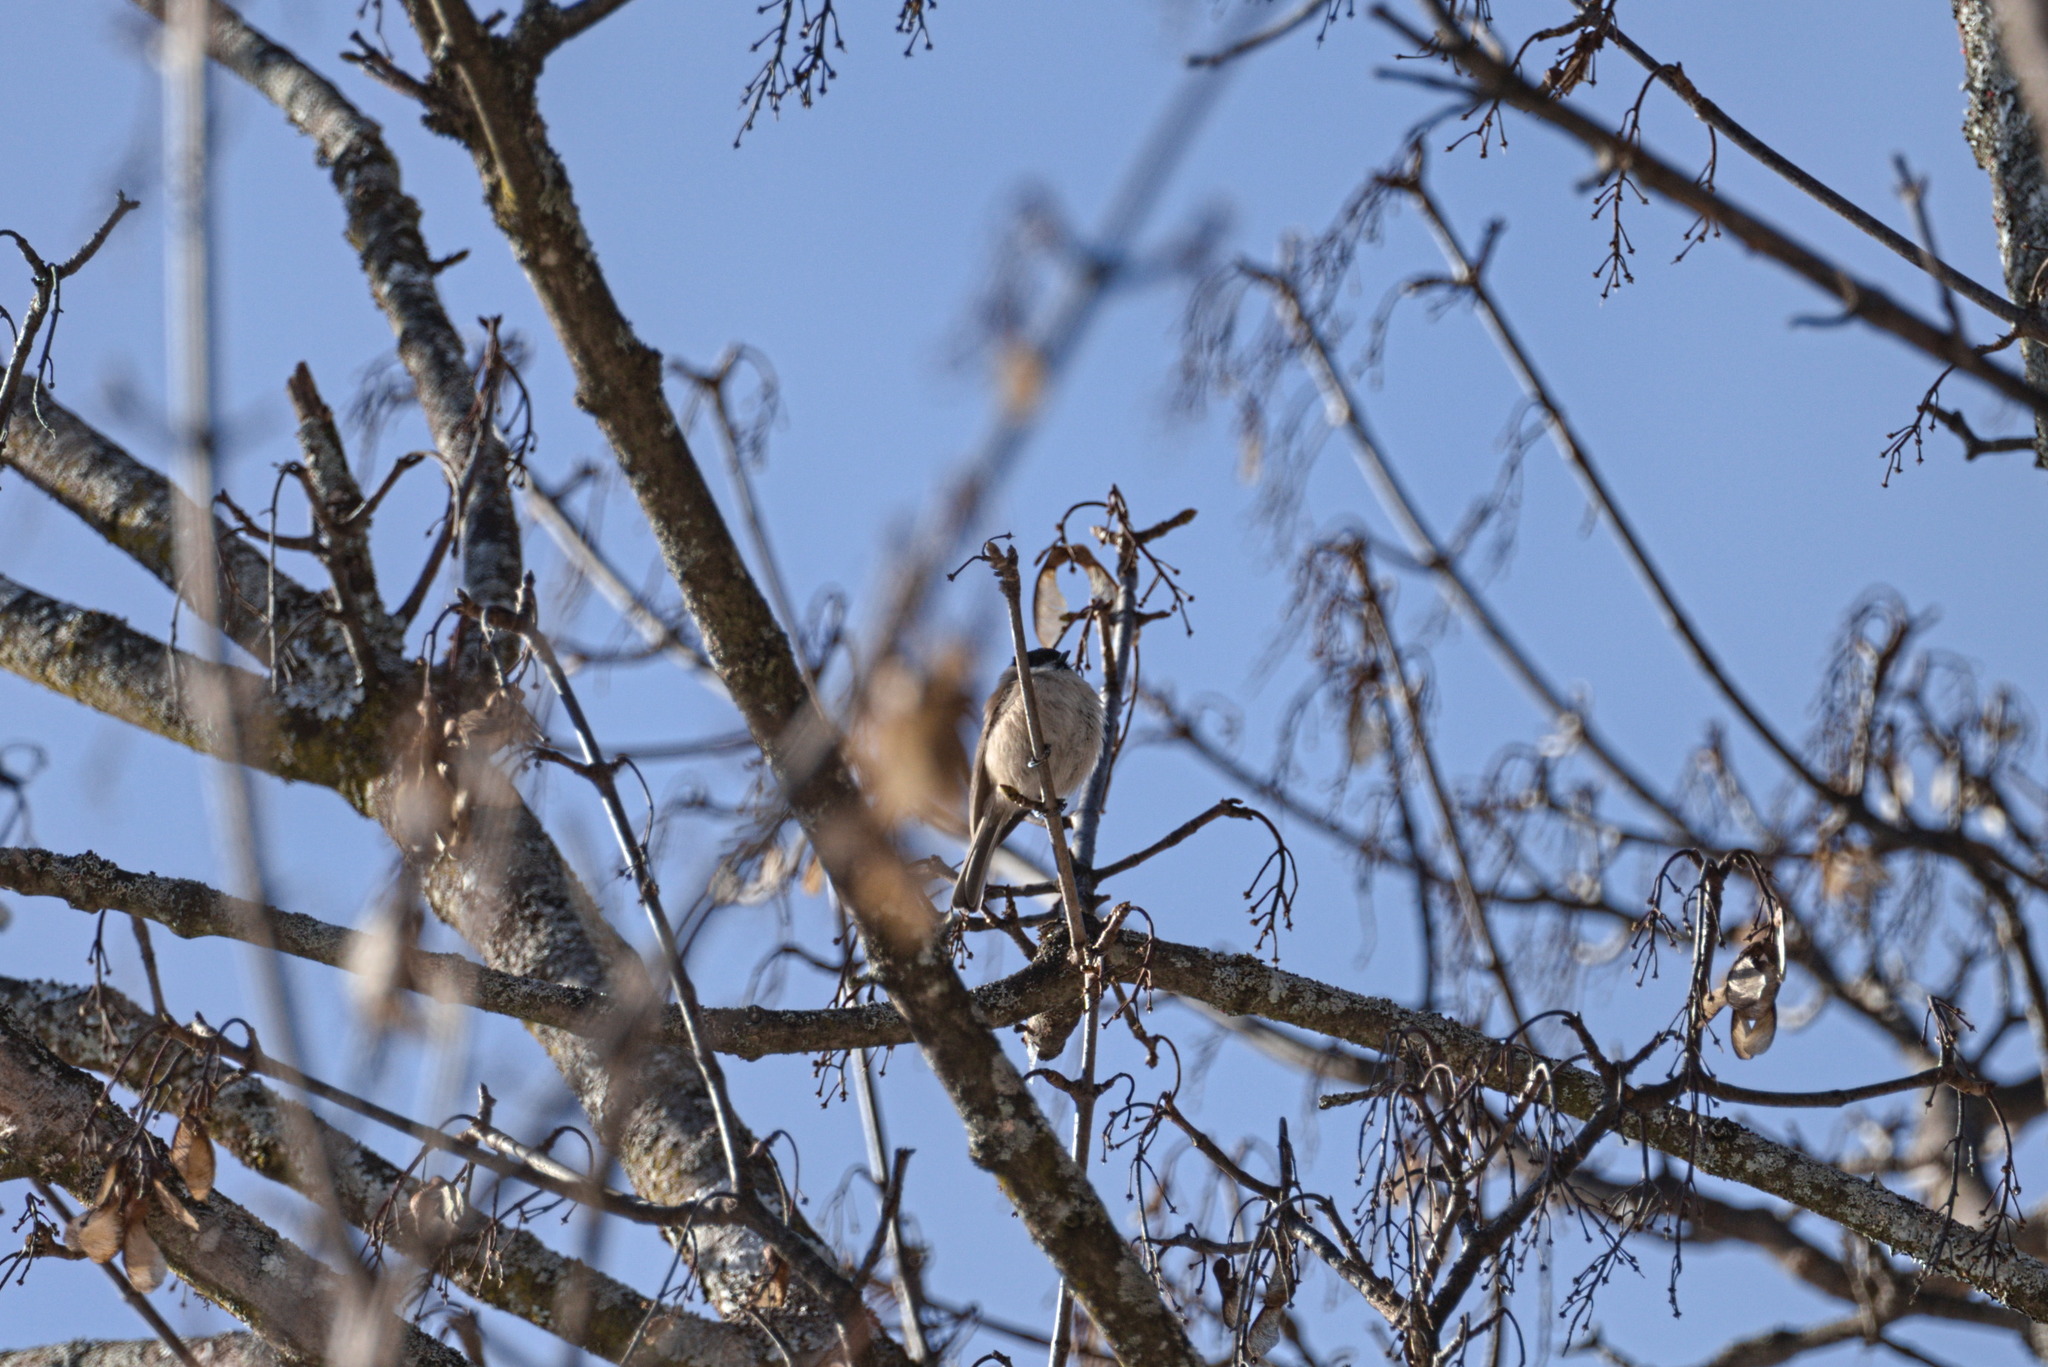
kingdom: Animalia
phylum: Chordata
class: Aves
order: Passeriformes
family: Paridae
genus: Poecile
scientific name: Poecile palustris
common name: Marsh tit
